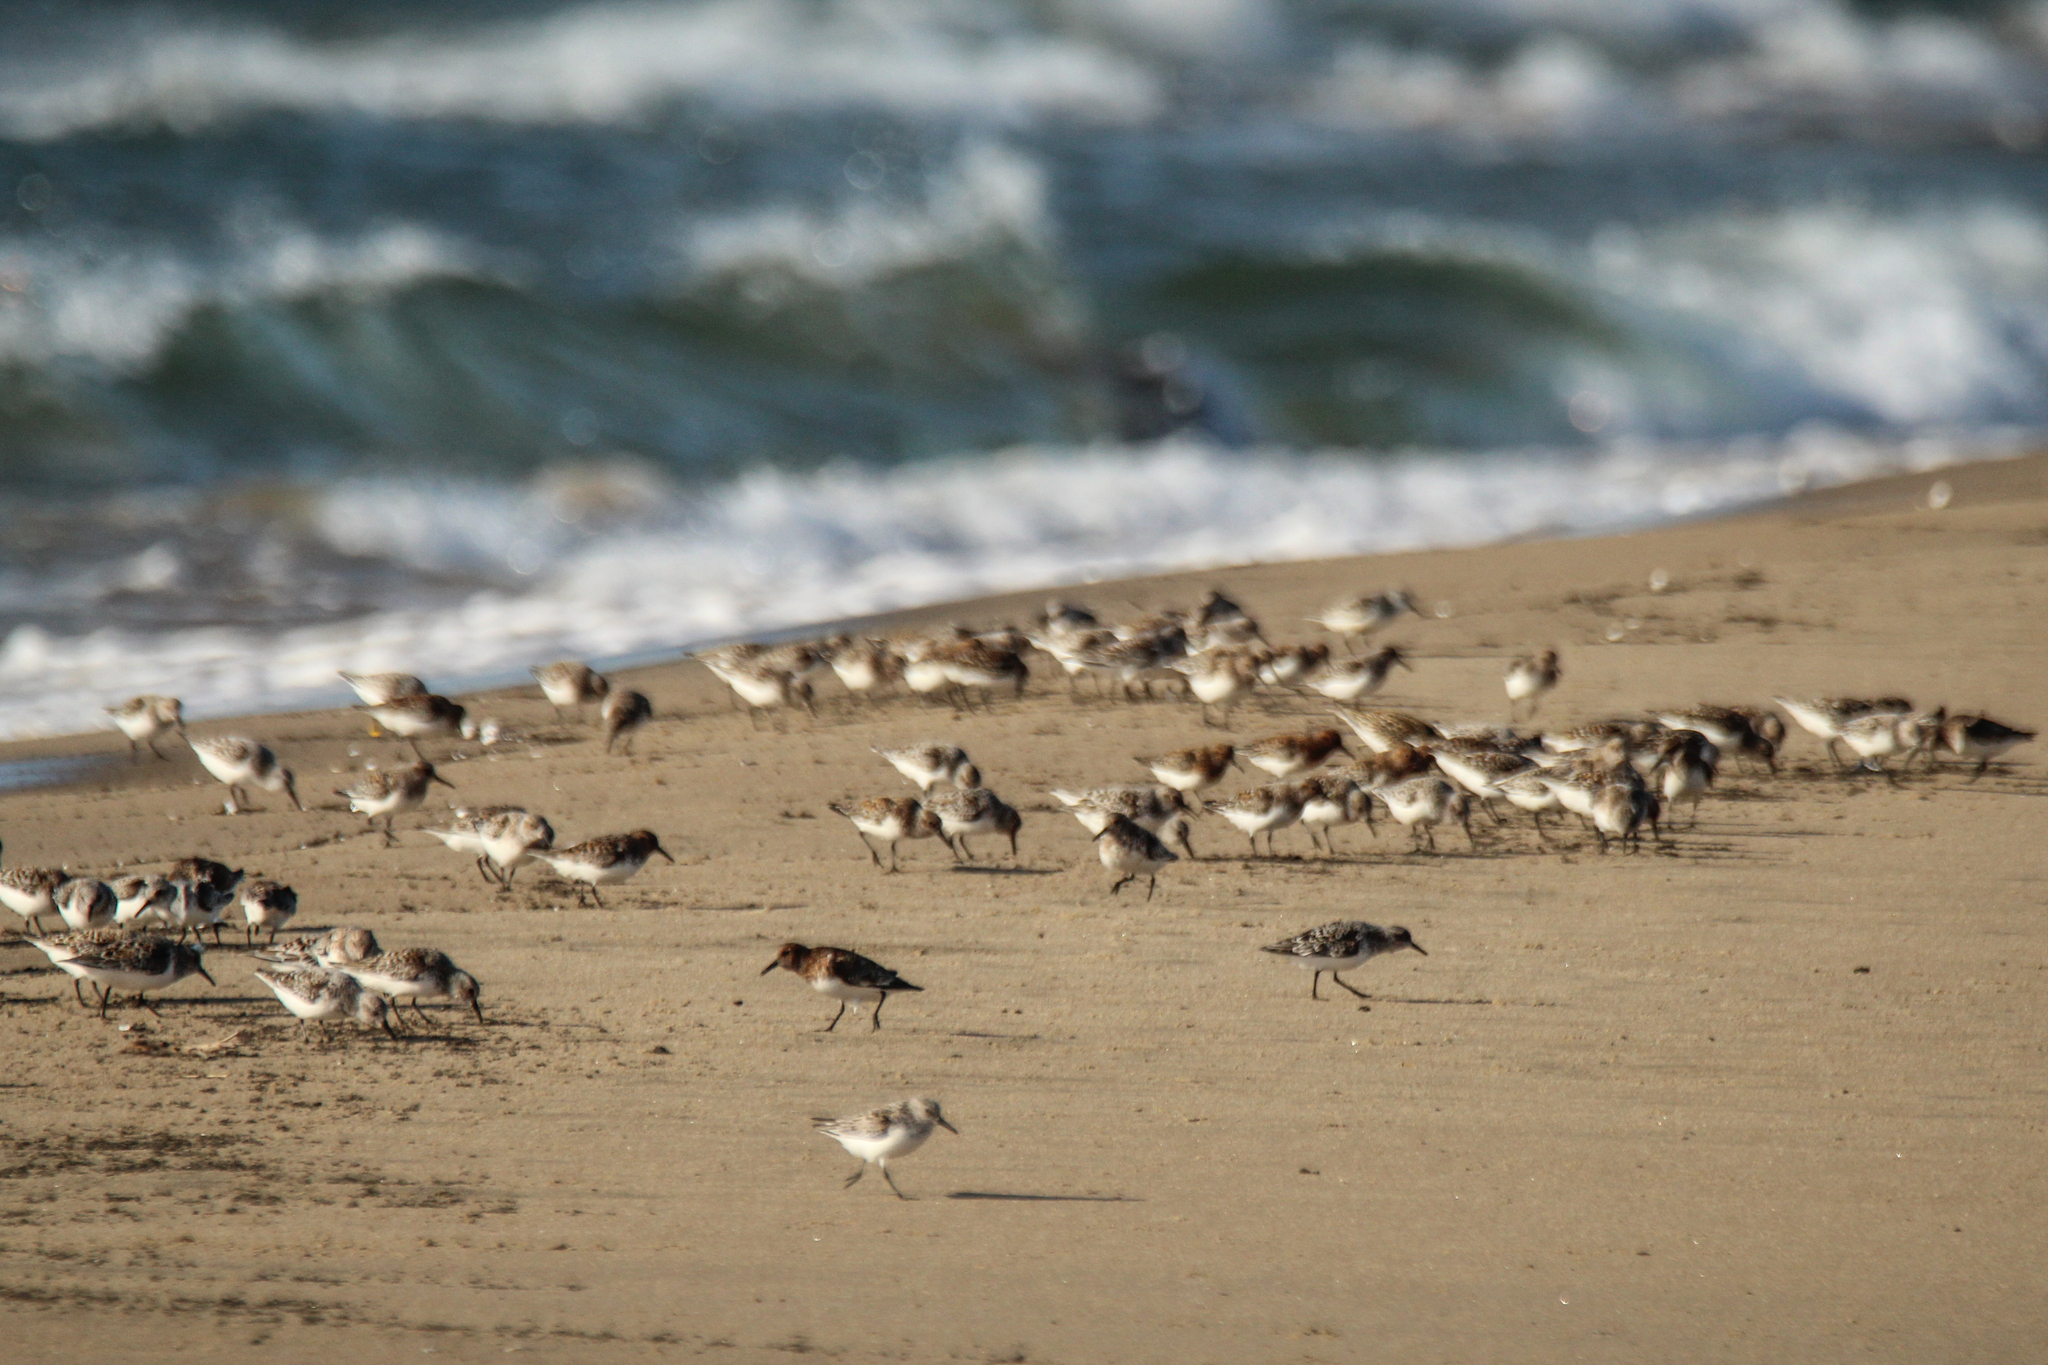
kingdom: Animalia
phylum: Chordata
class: Aves
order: Charadriiformes
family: Scolopacidae
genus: Calidris
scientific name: Calidris alba
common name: Sanderling
